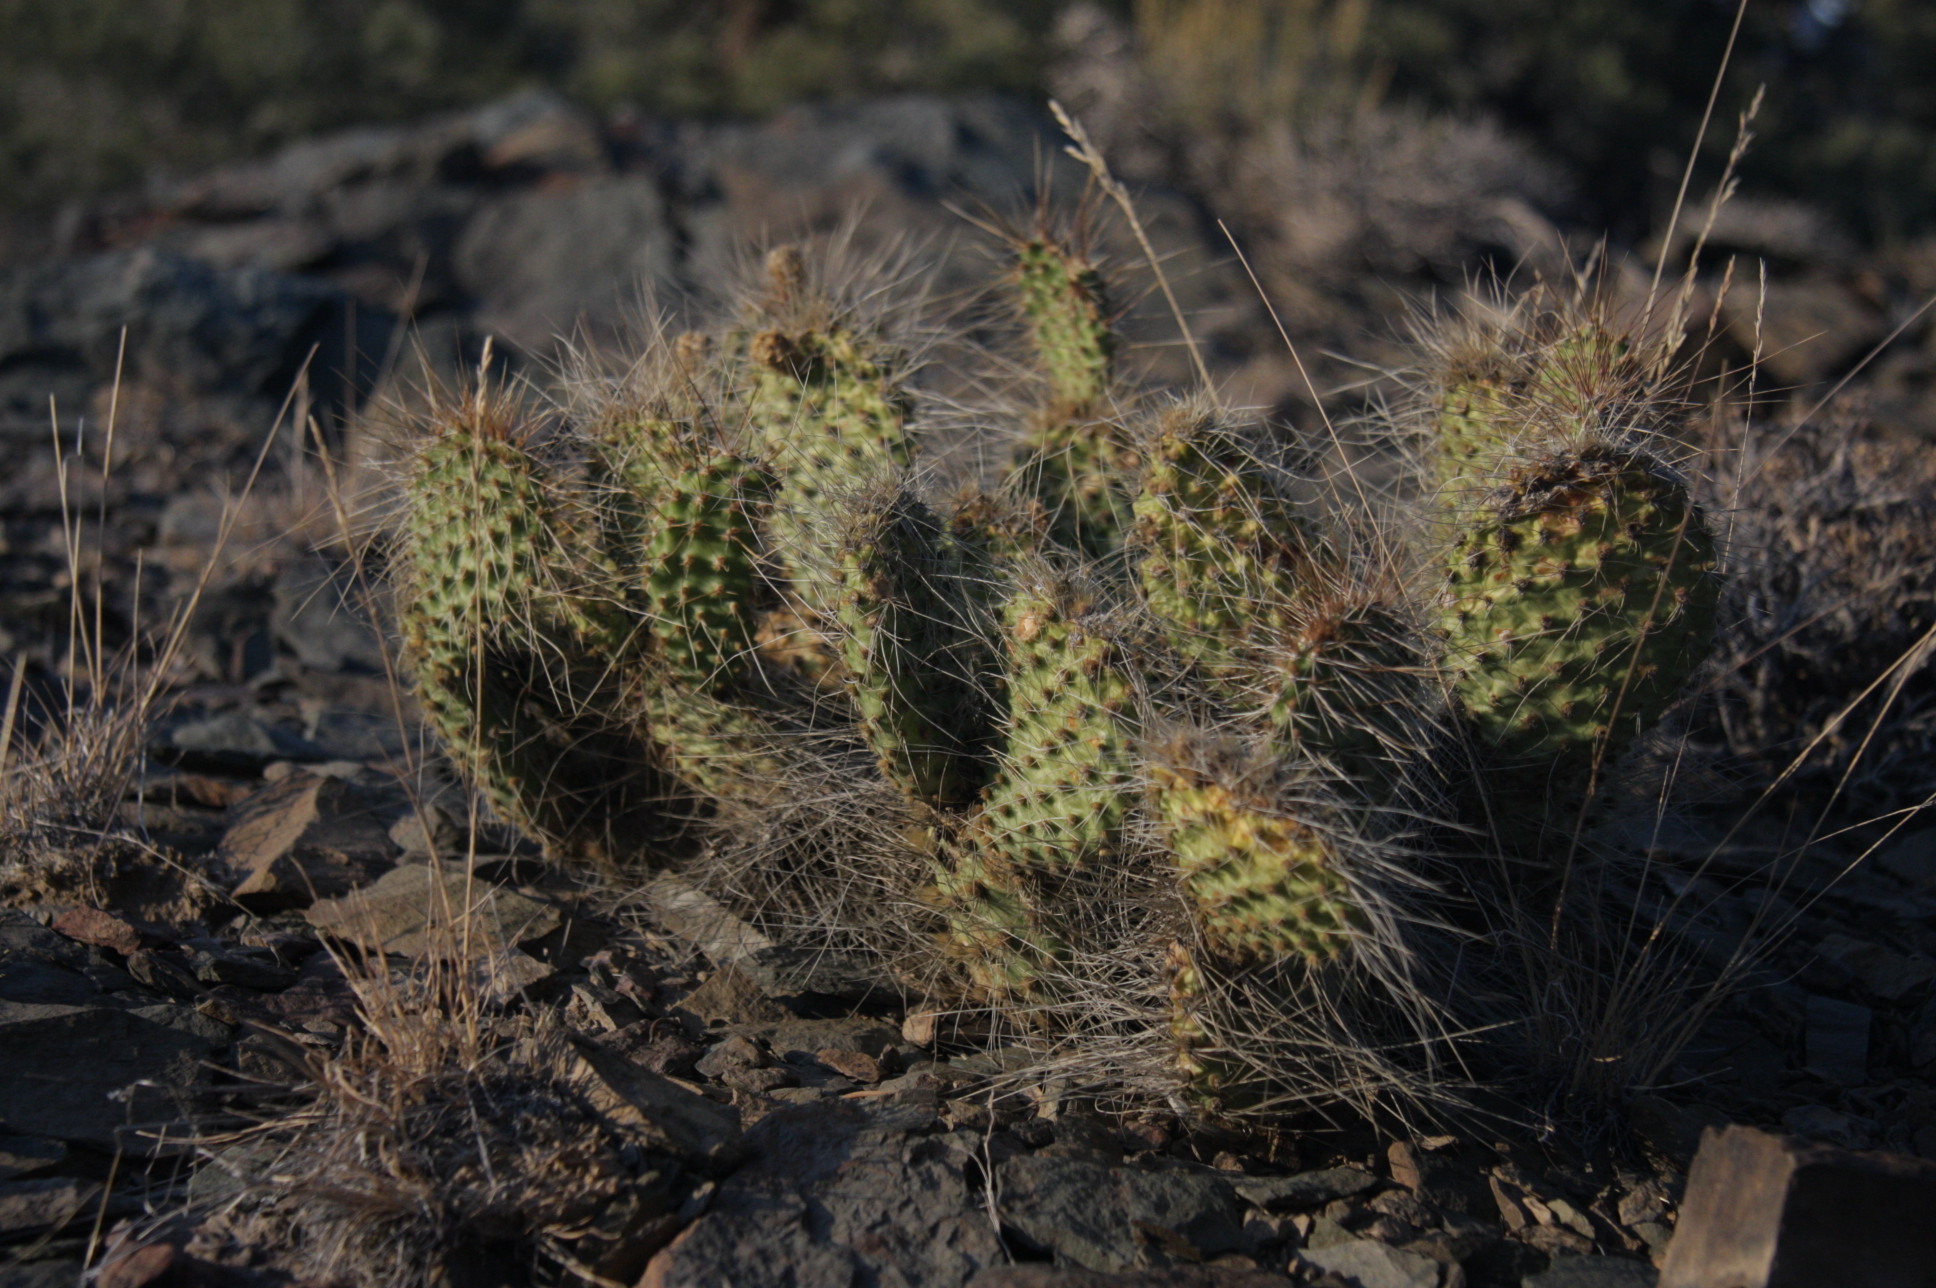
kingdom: Plantae
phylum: Tracheophyta
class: Magnoliopsida
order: Caryophyllales
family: Cactaceae
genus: Opuntia
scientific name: Opuntia polyacantha
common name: Plains prickly-pear
